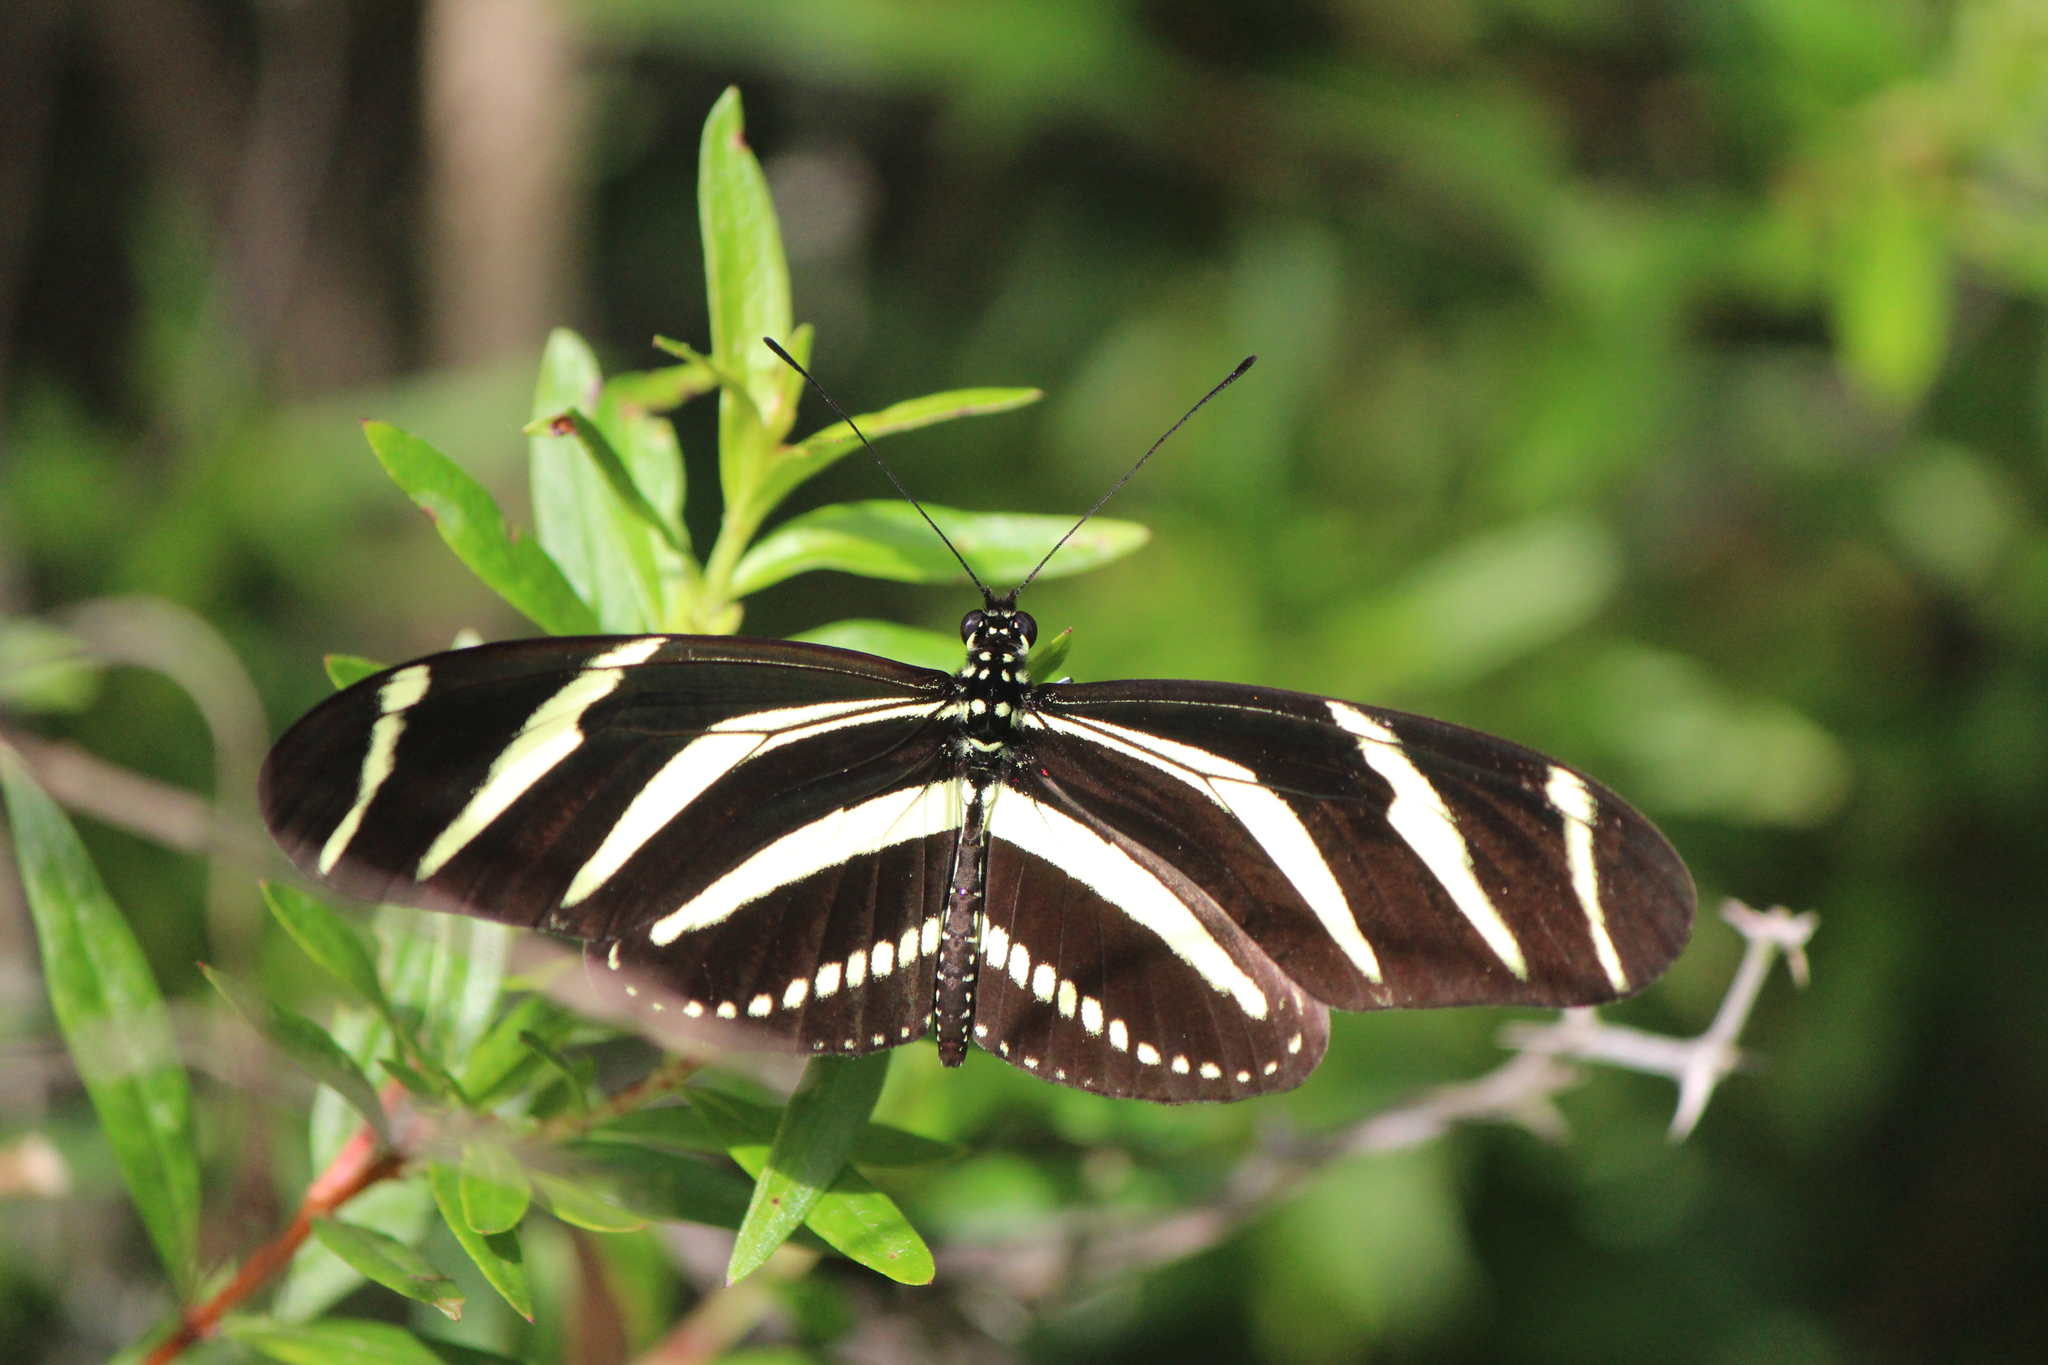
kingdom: Animalia
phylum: Arthropoda
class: Insecta
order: Lepidoptera
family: Nymphalidae
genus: Heliconius
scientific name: Heliconius charithonia
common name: Zebra long wing
